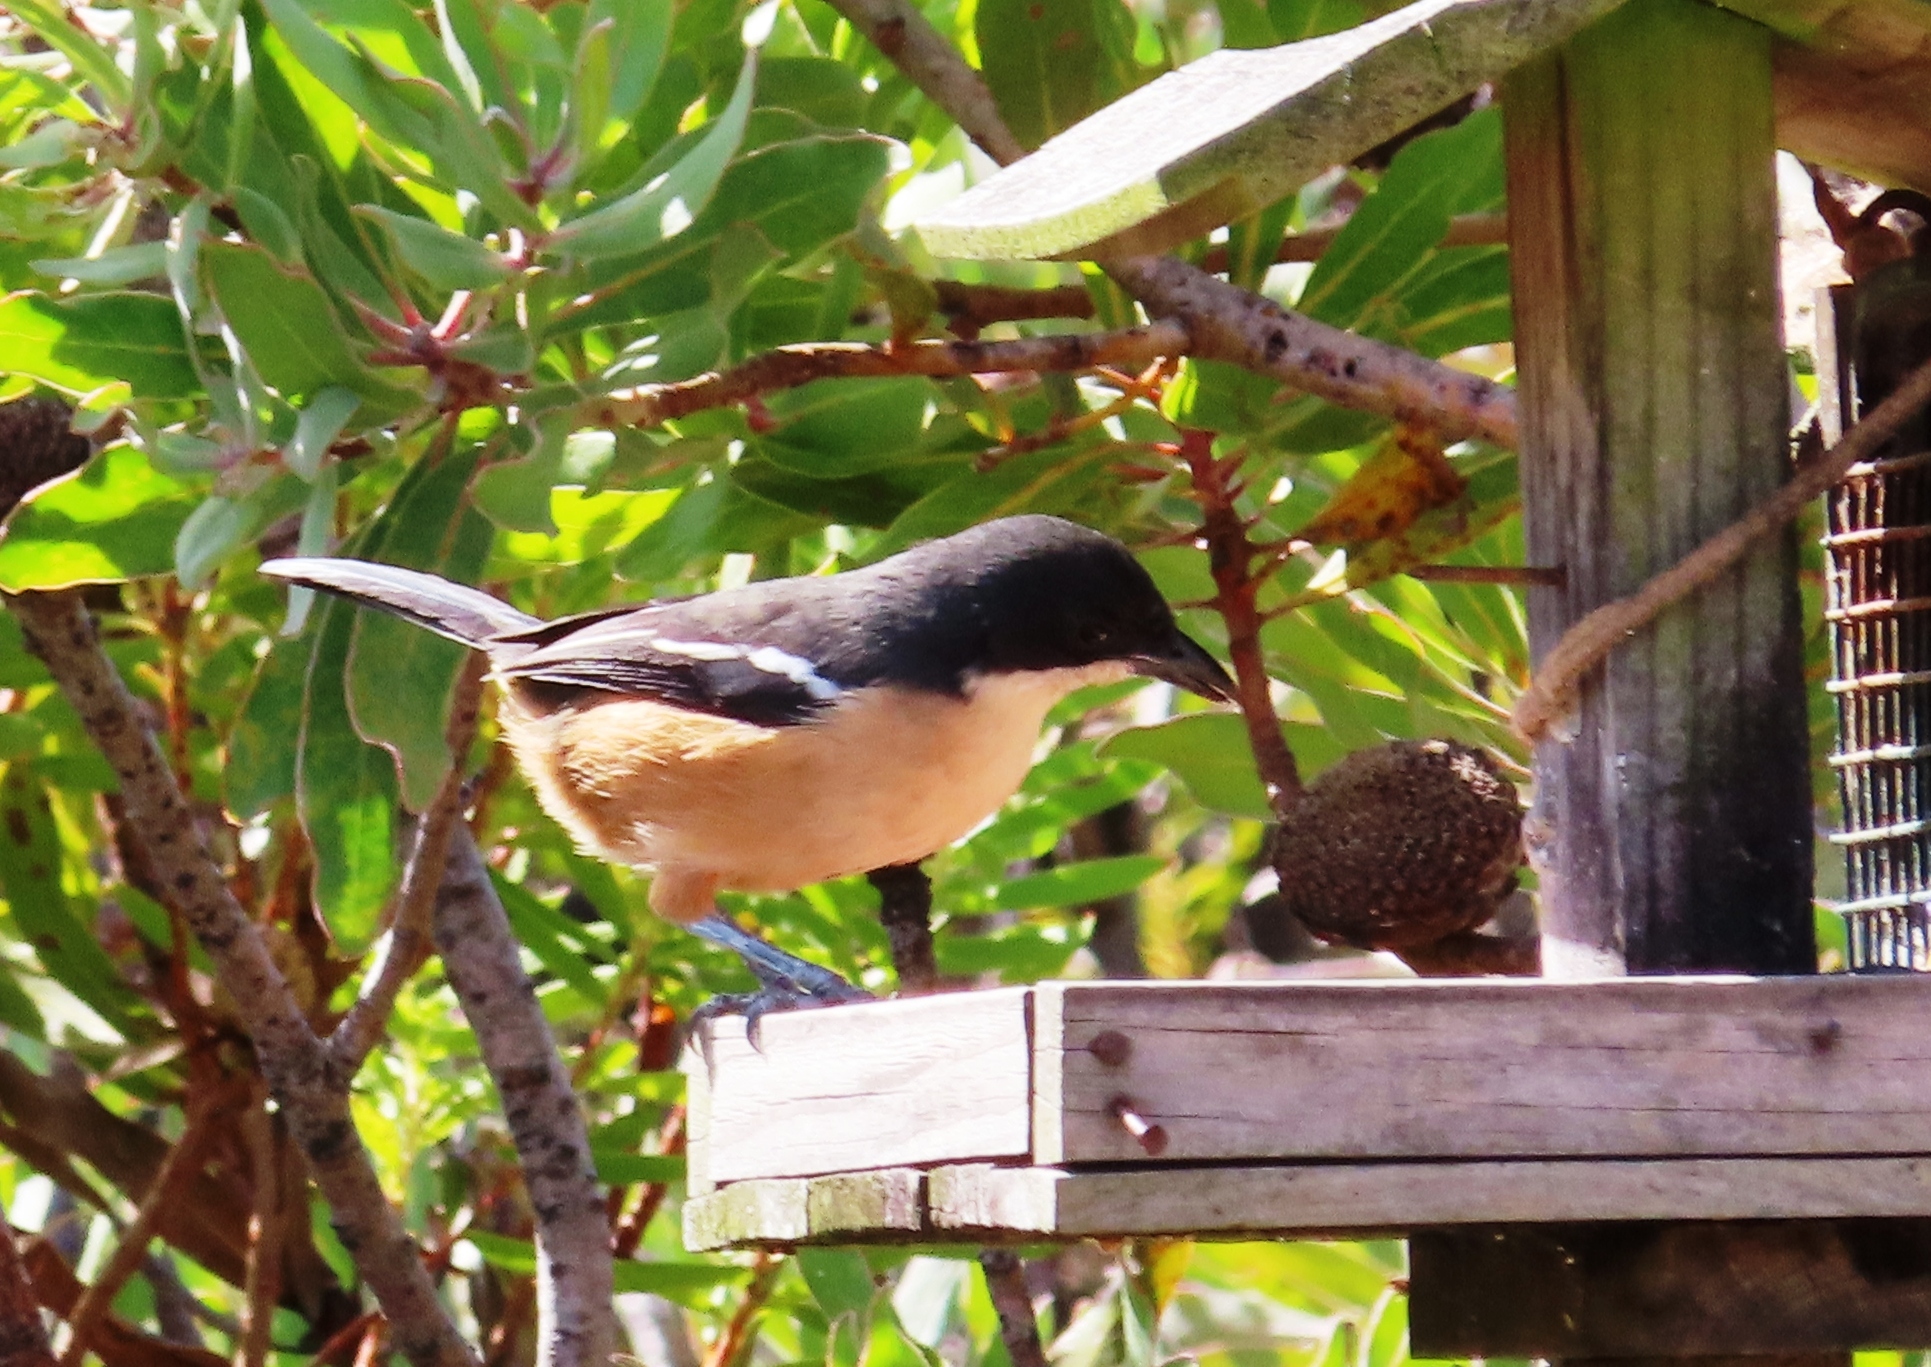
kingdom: Animalia
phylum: Chordata
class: Aves
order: Passeriformes
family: Malaconotidae
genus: Laniarius
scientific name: Laniarius ferrugineus
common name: Southern boubou
